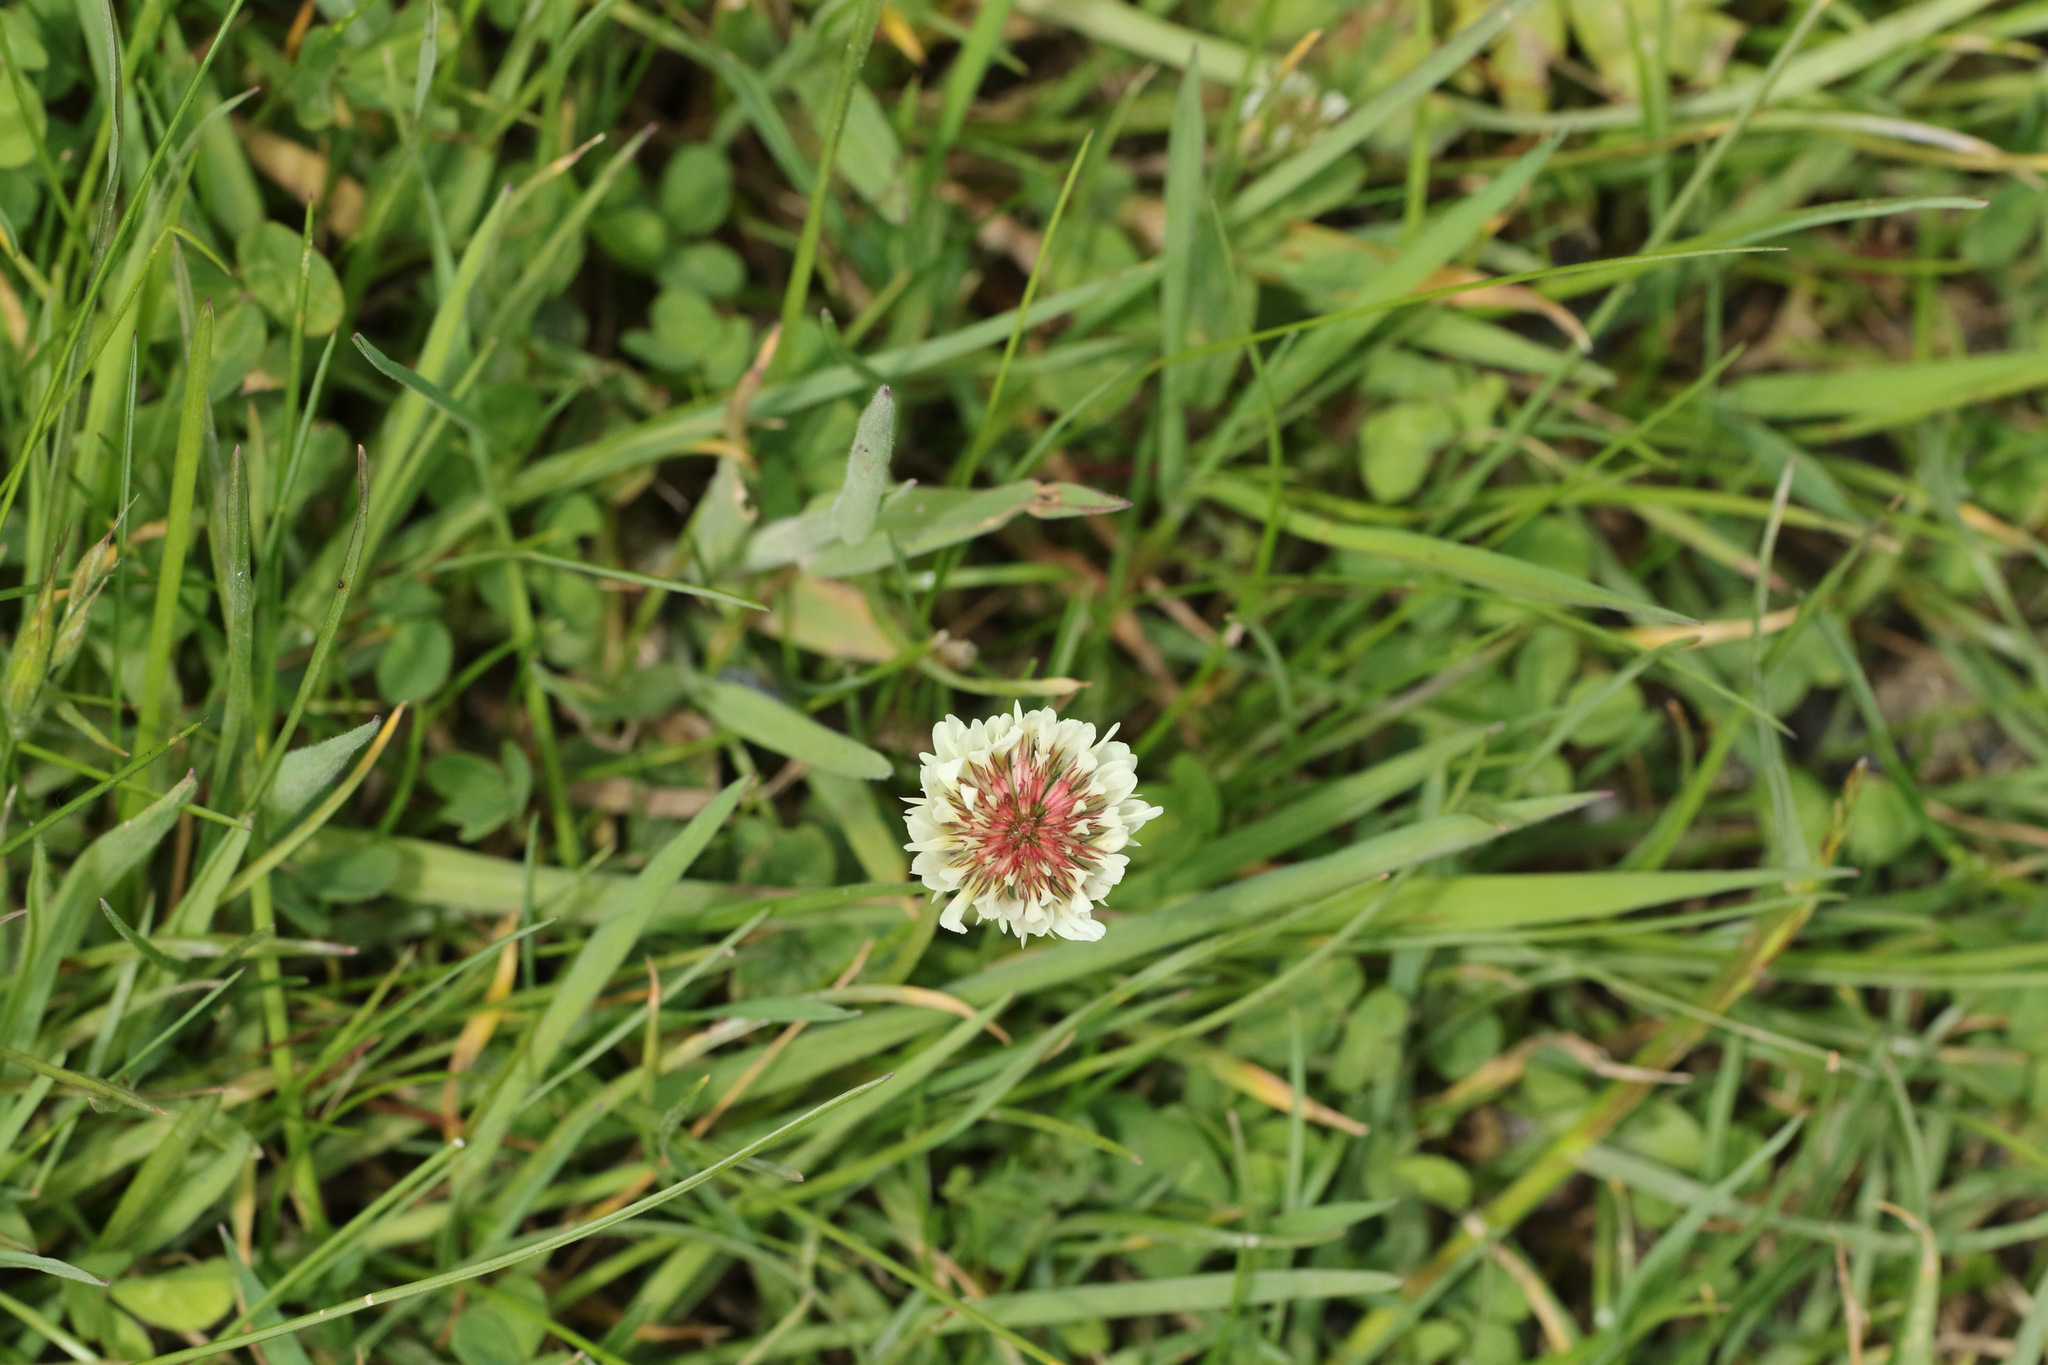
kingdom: Plantae
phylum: Tracheophyta
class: Magnoliopsida
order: Fabales
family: Fabaceae
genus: Trifolium
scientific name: Trifolium repens
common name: White clover
